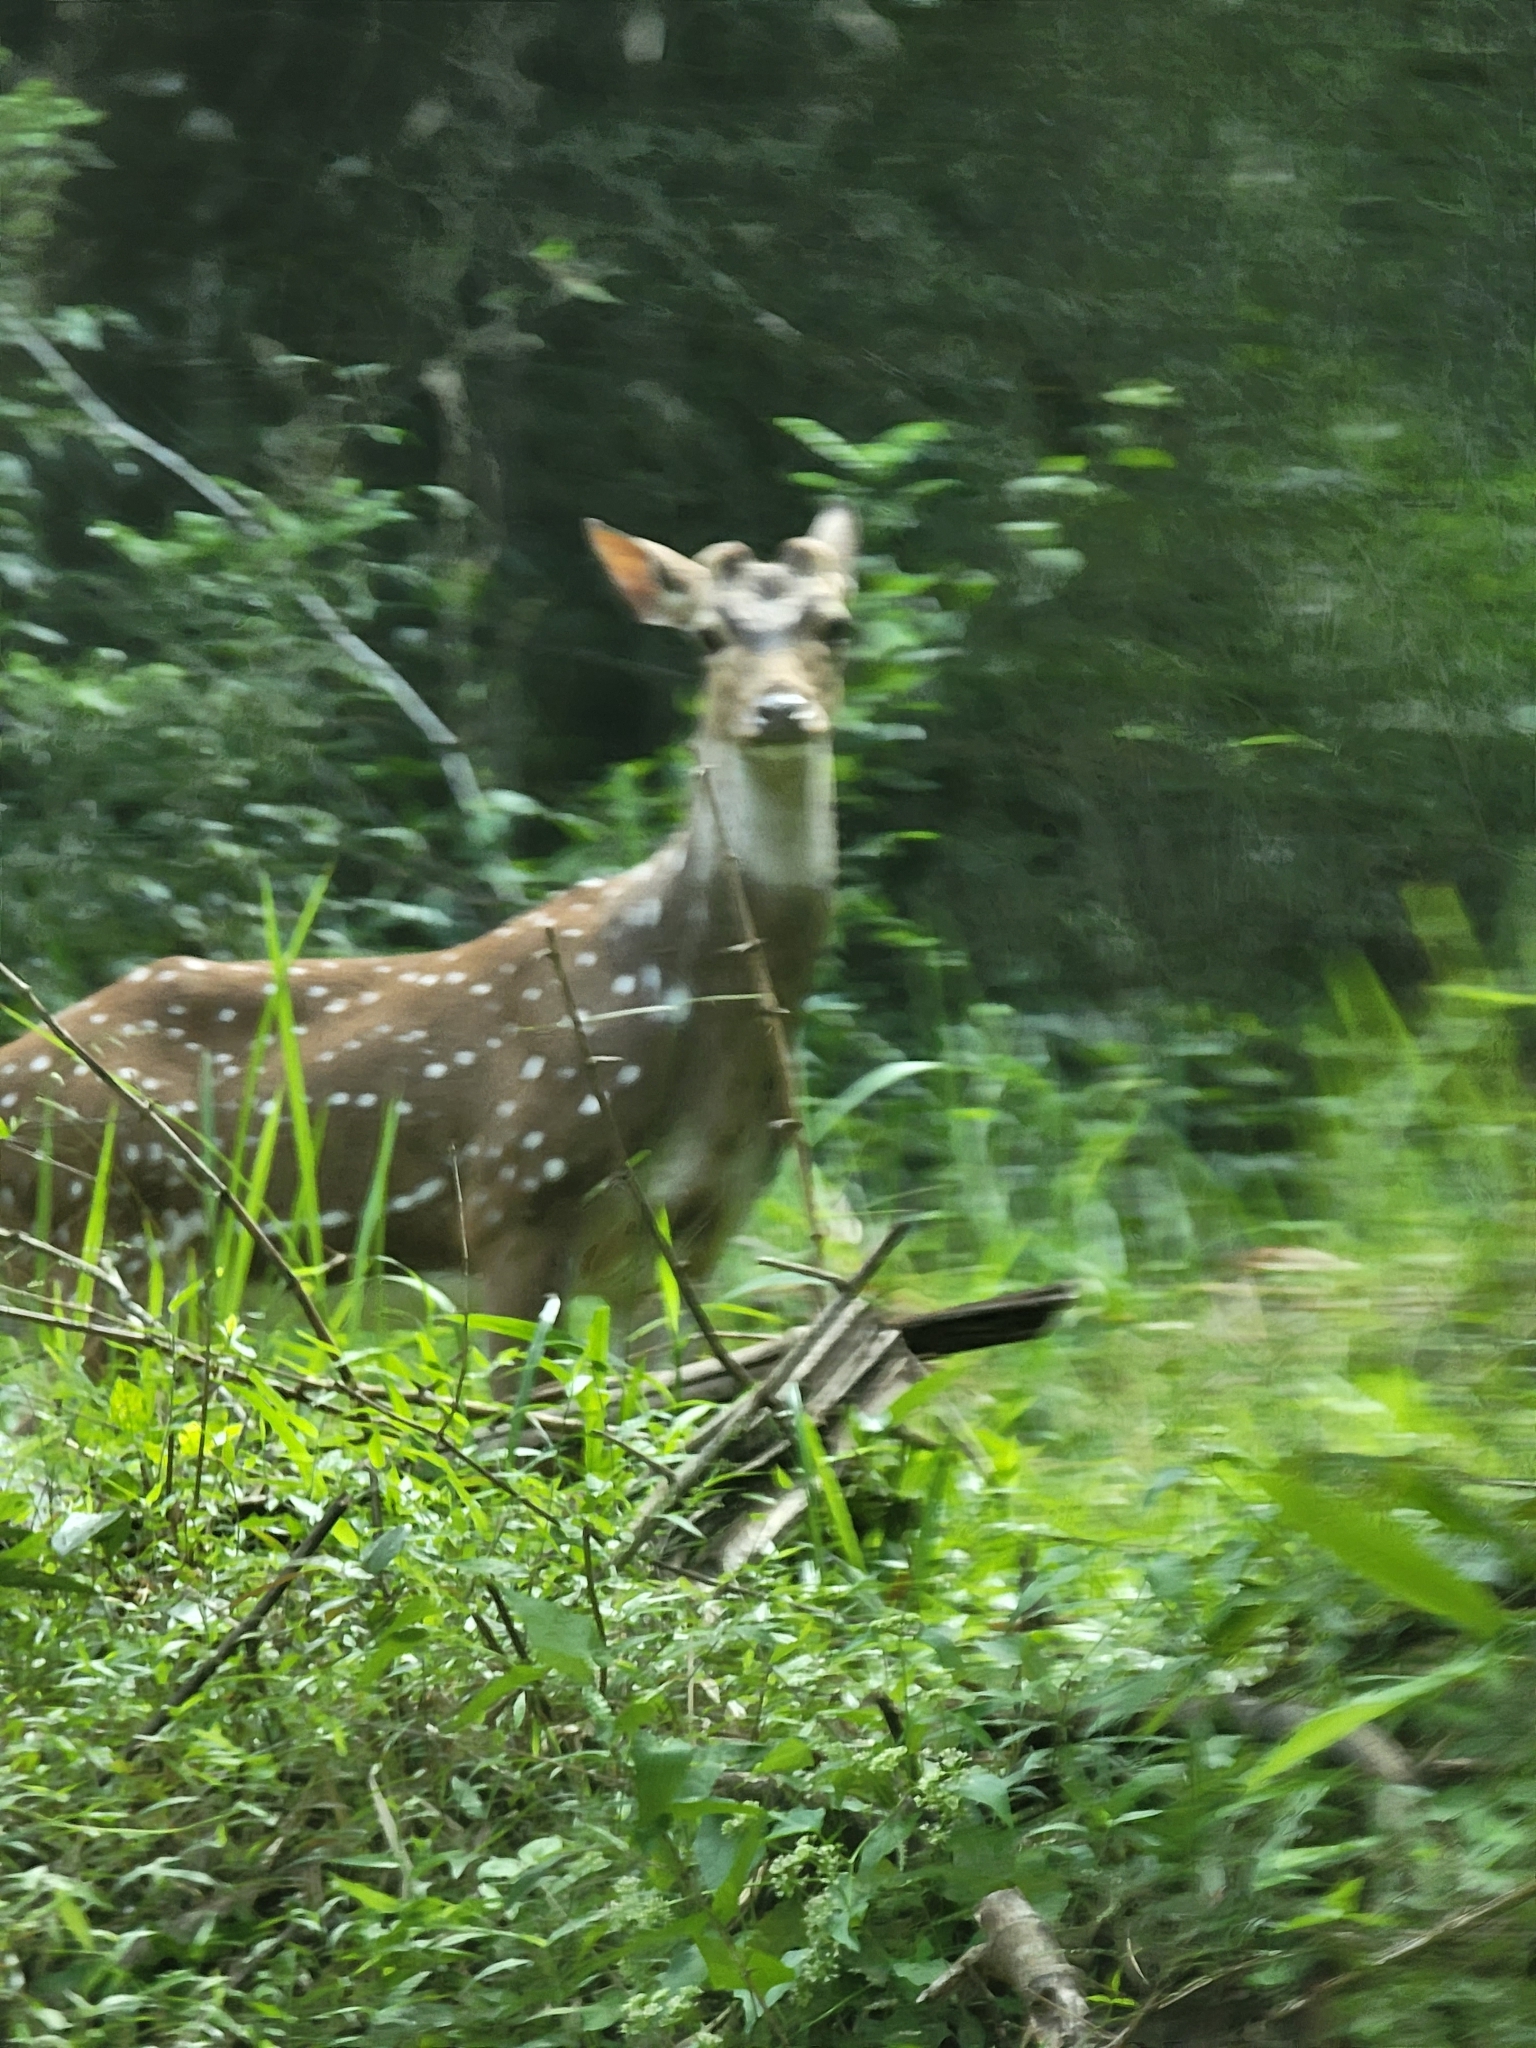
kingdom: Animalia
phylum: Chordata
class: Mammalia
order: Artiodactyla
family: Cervidae
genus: Axis
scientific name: Axis axis
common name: Chital
